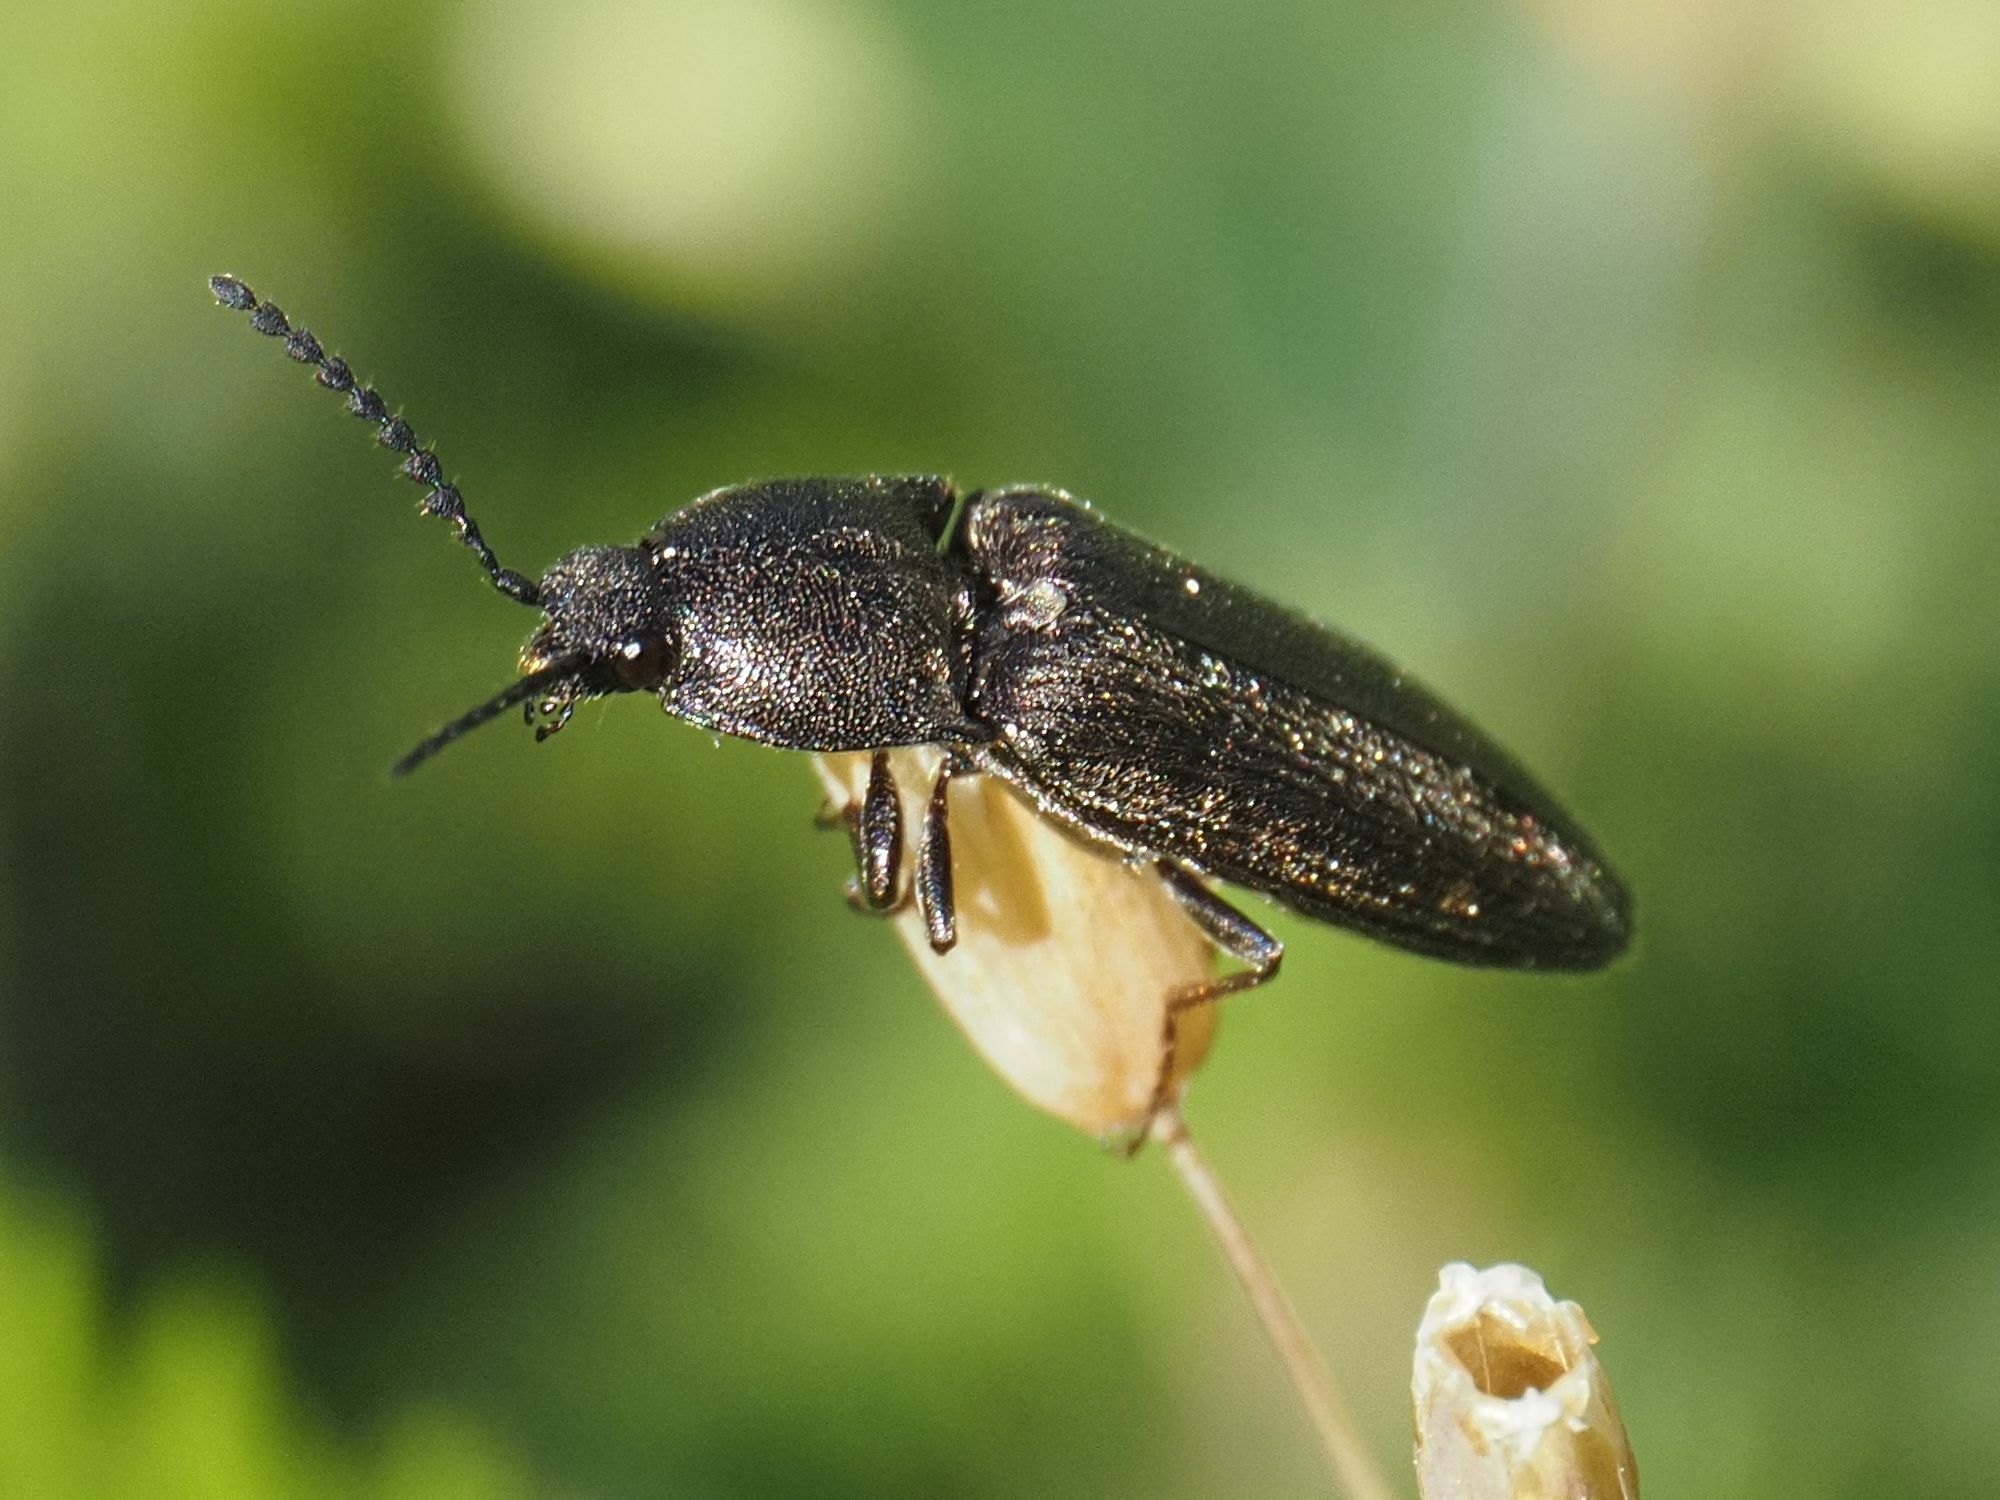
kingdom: Animalia
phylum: Arthropoda
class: Insecta
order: Coleoptera
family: Elateridae
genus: Cidnopus
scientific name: Cidnopus pilosus
